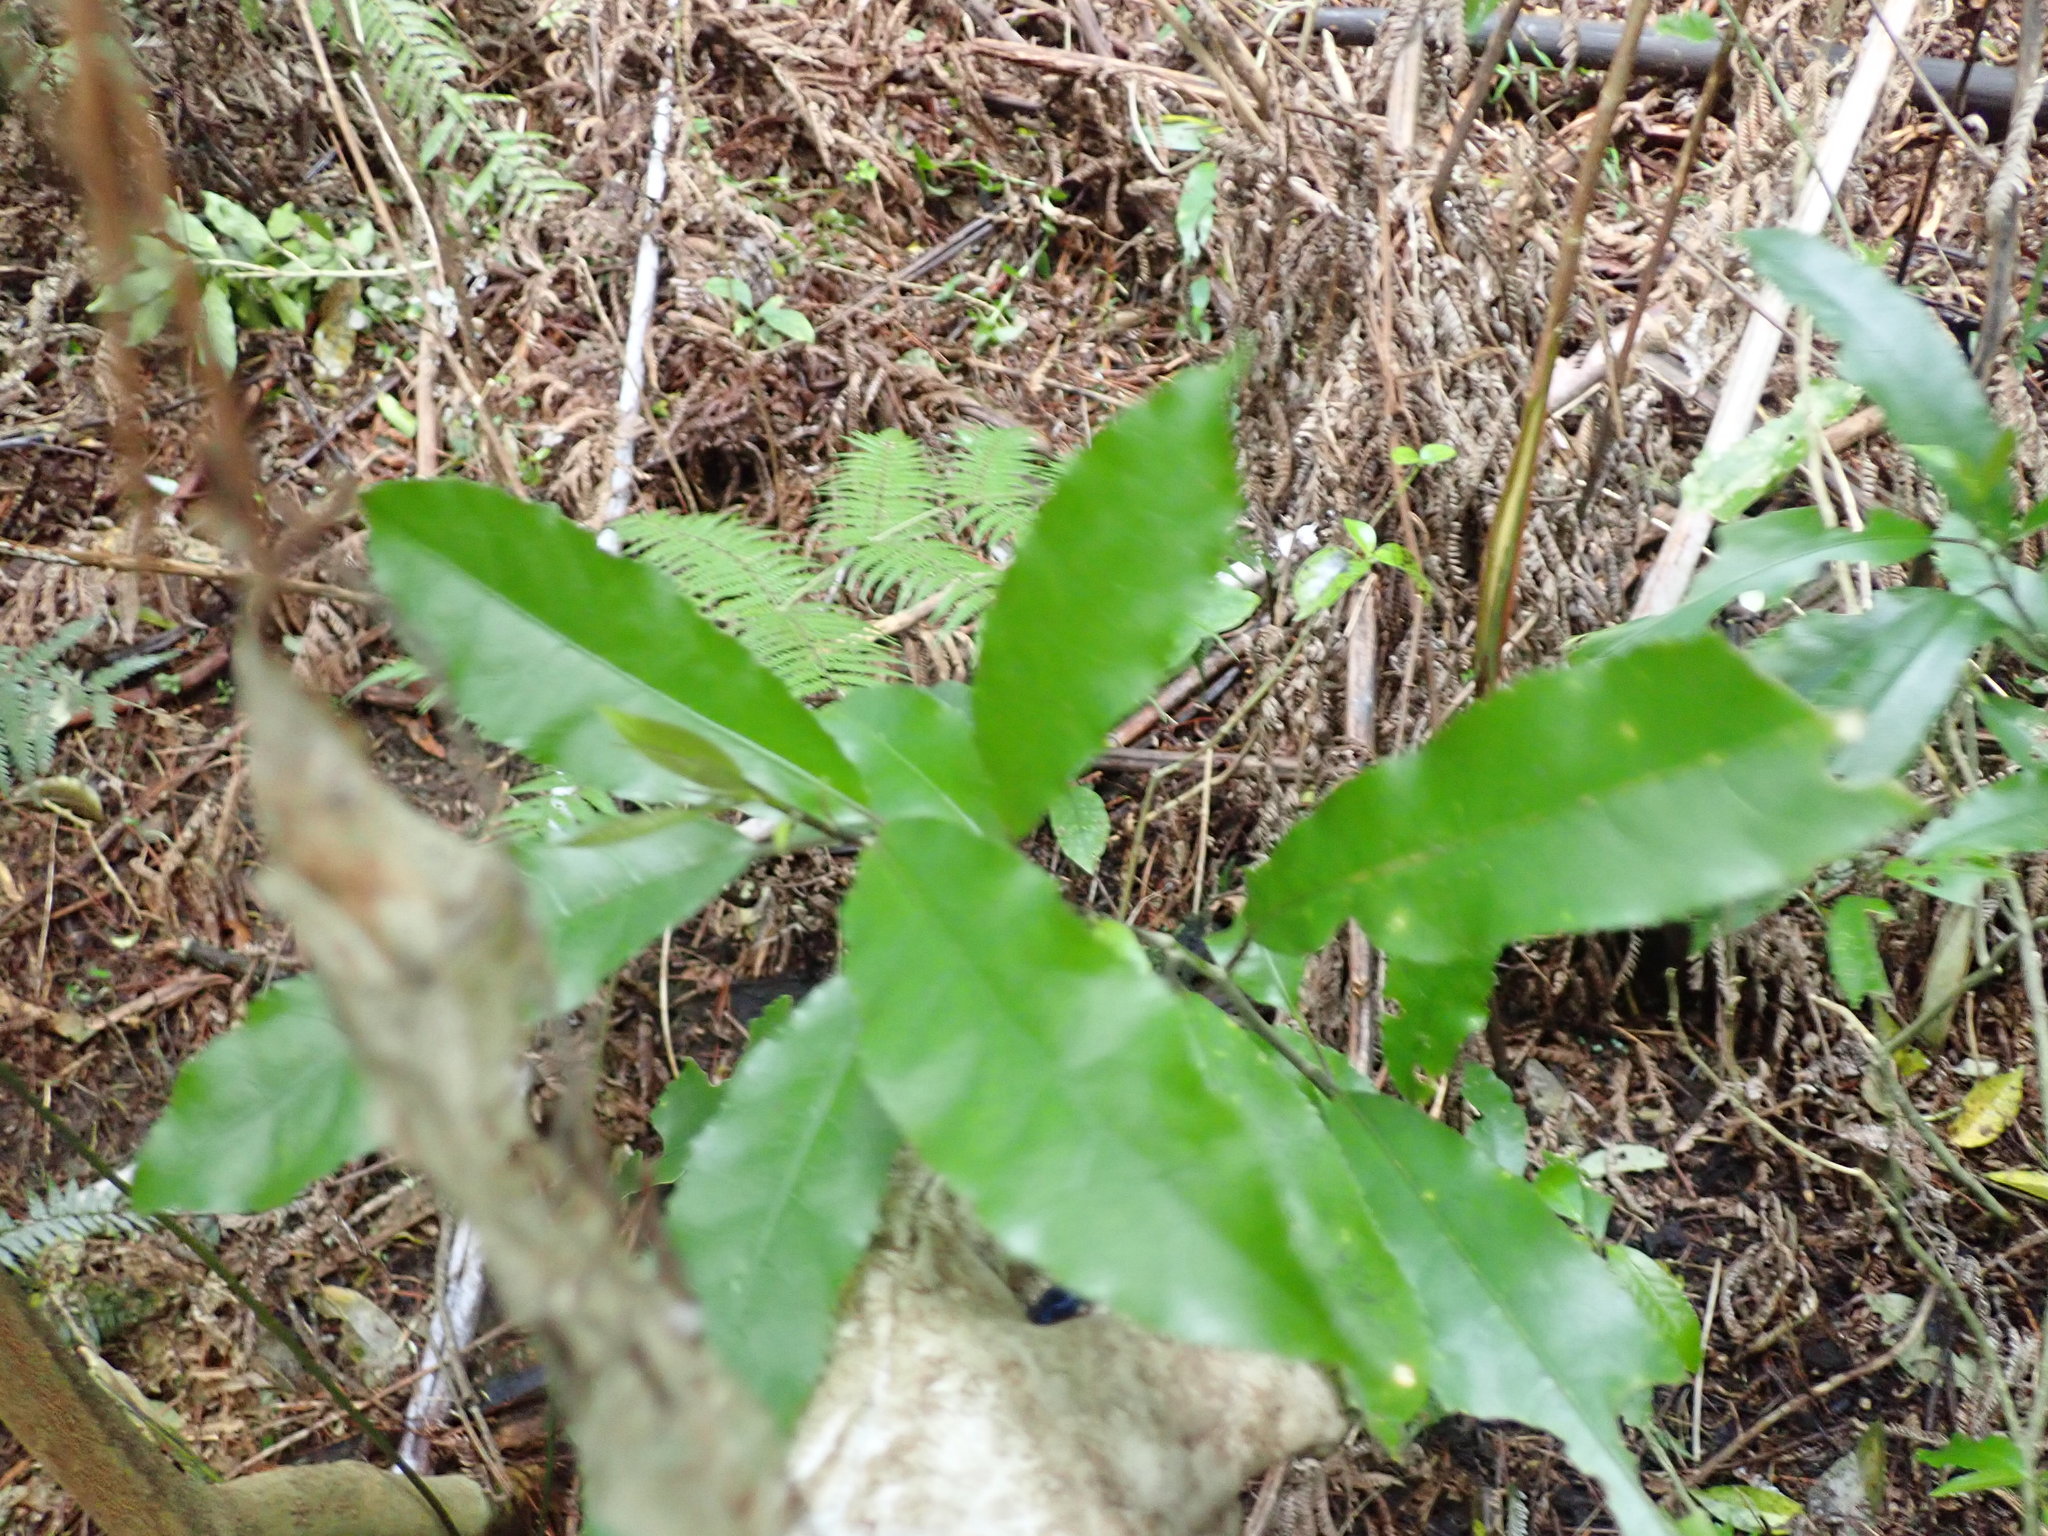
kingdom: Plantae
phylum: Tracheophyta
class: Magnoliopsida
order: Malpighiales
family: Violaceae
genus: Melicytus
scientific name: Melicytus ramiflorus
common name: Mahoe
